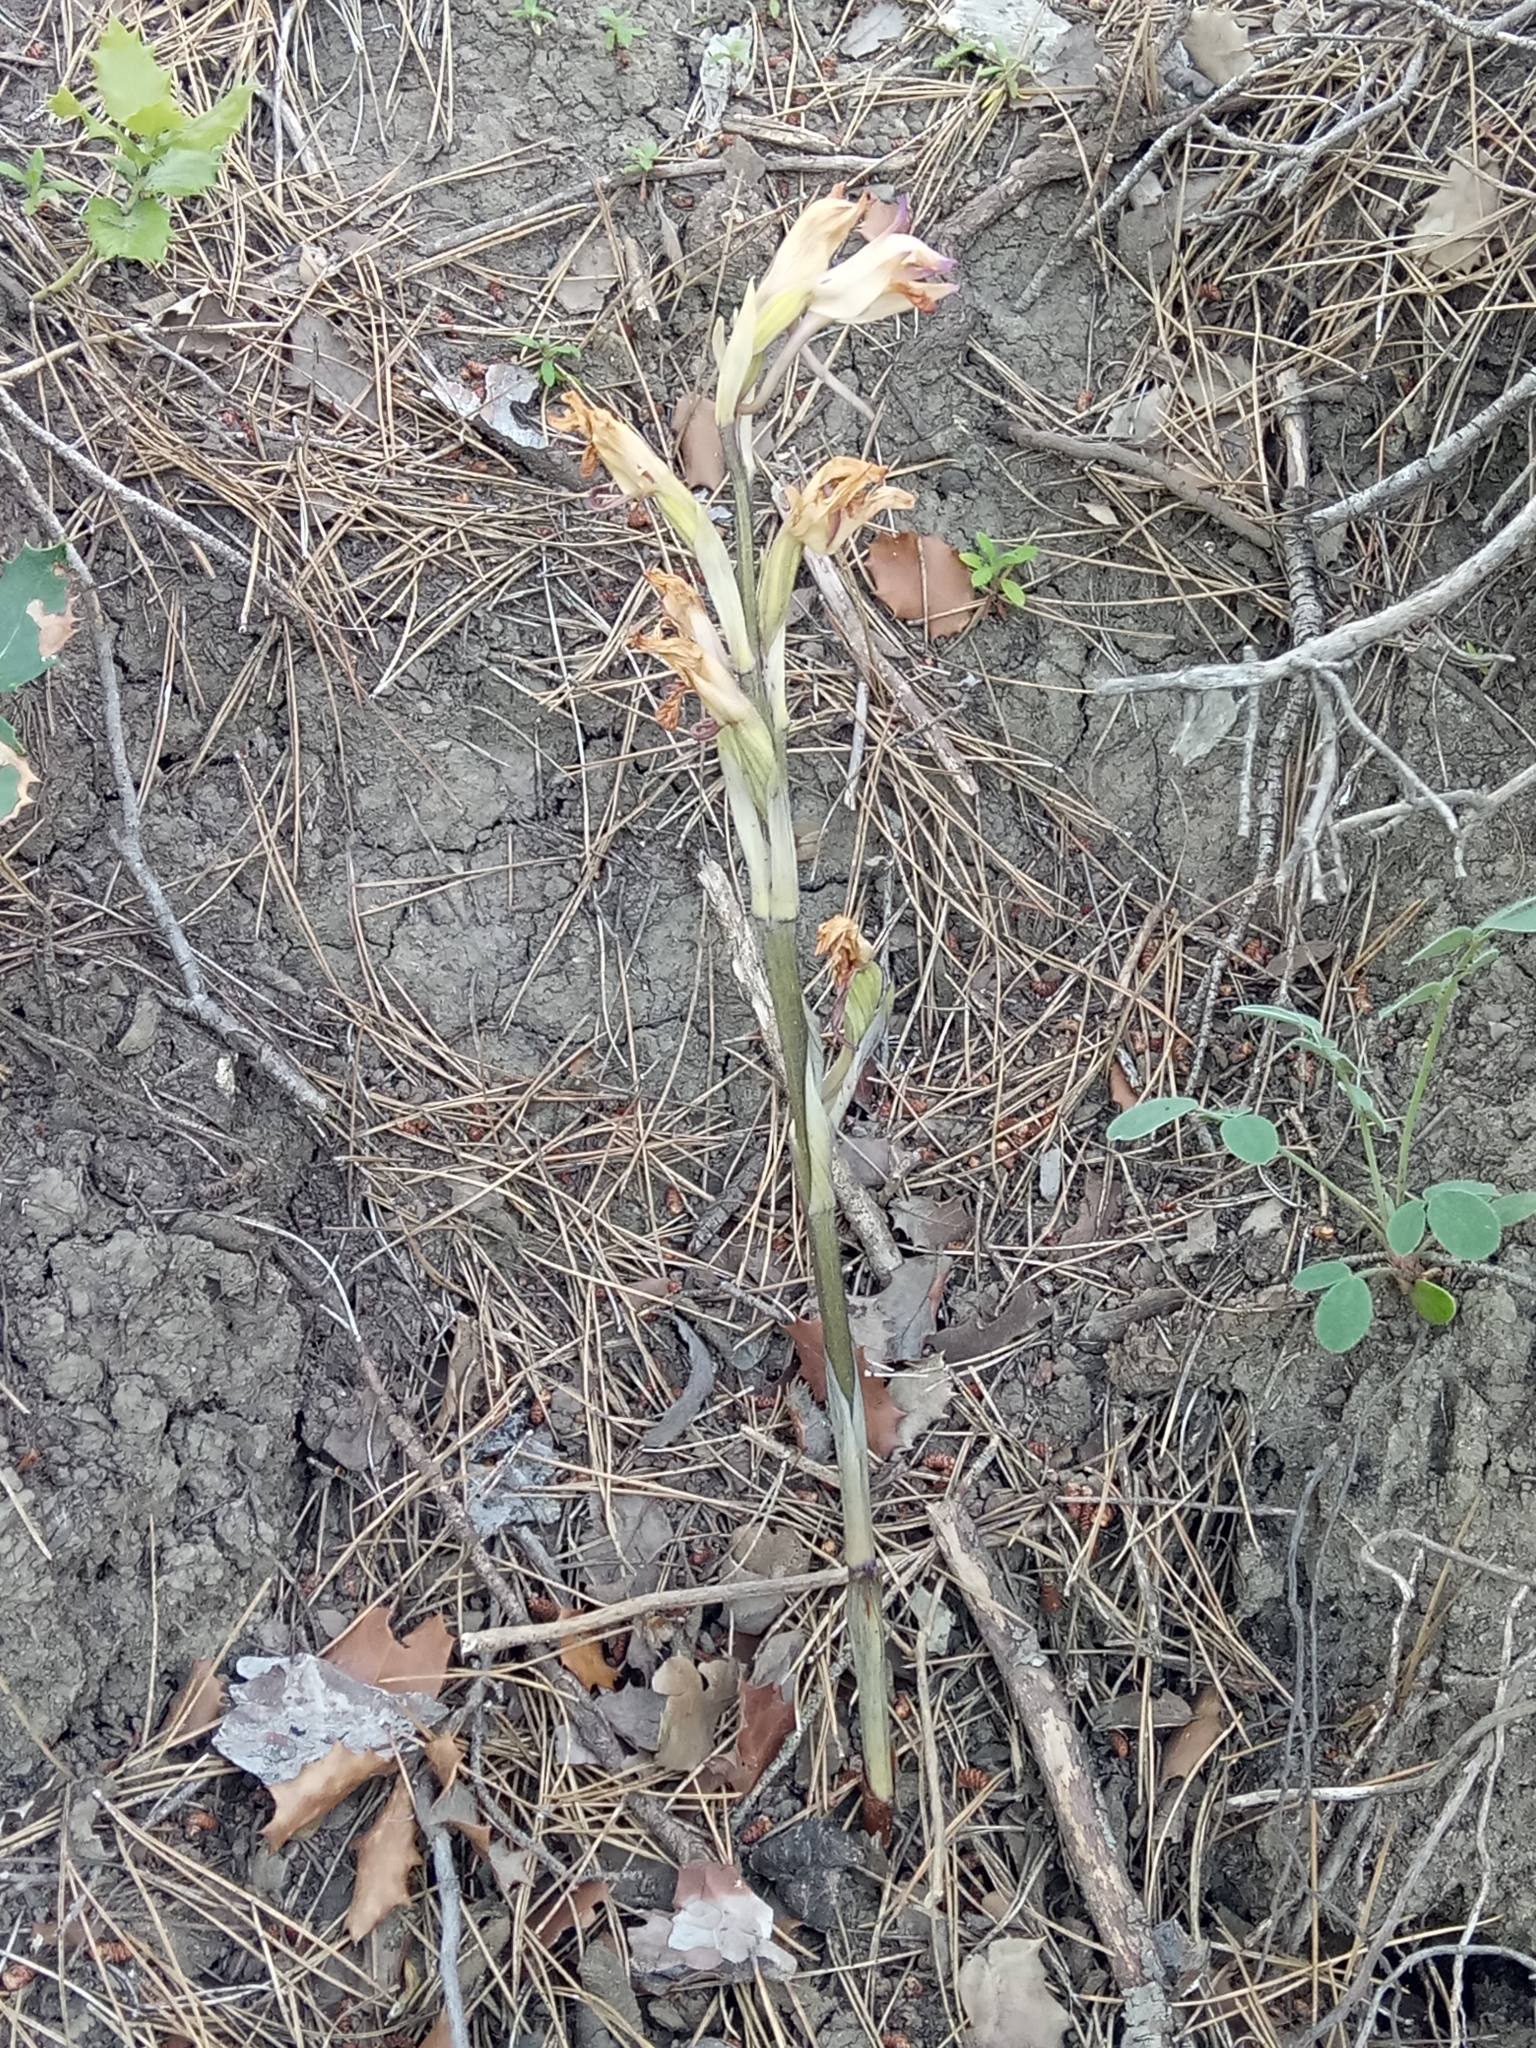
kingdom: Plantae
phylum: Tracheophyta
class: Liliopsida
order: Asparagales
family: Orchidaceae
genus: Limodorum
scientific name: Limodorum abortivum
